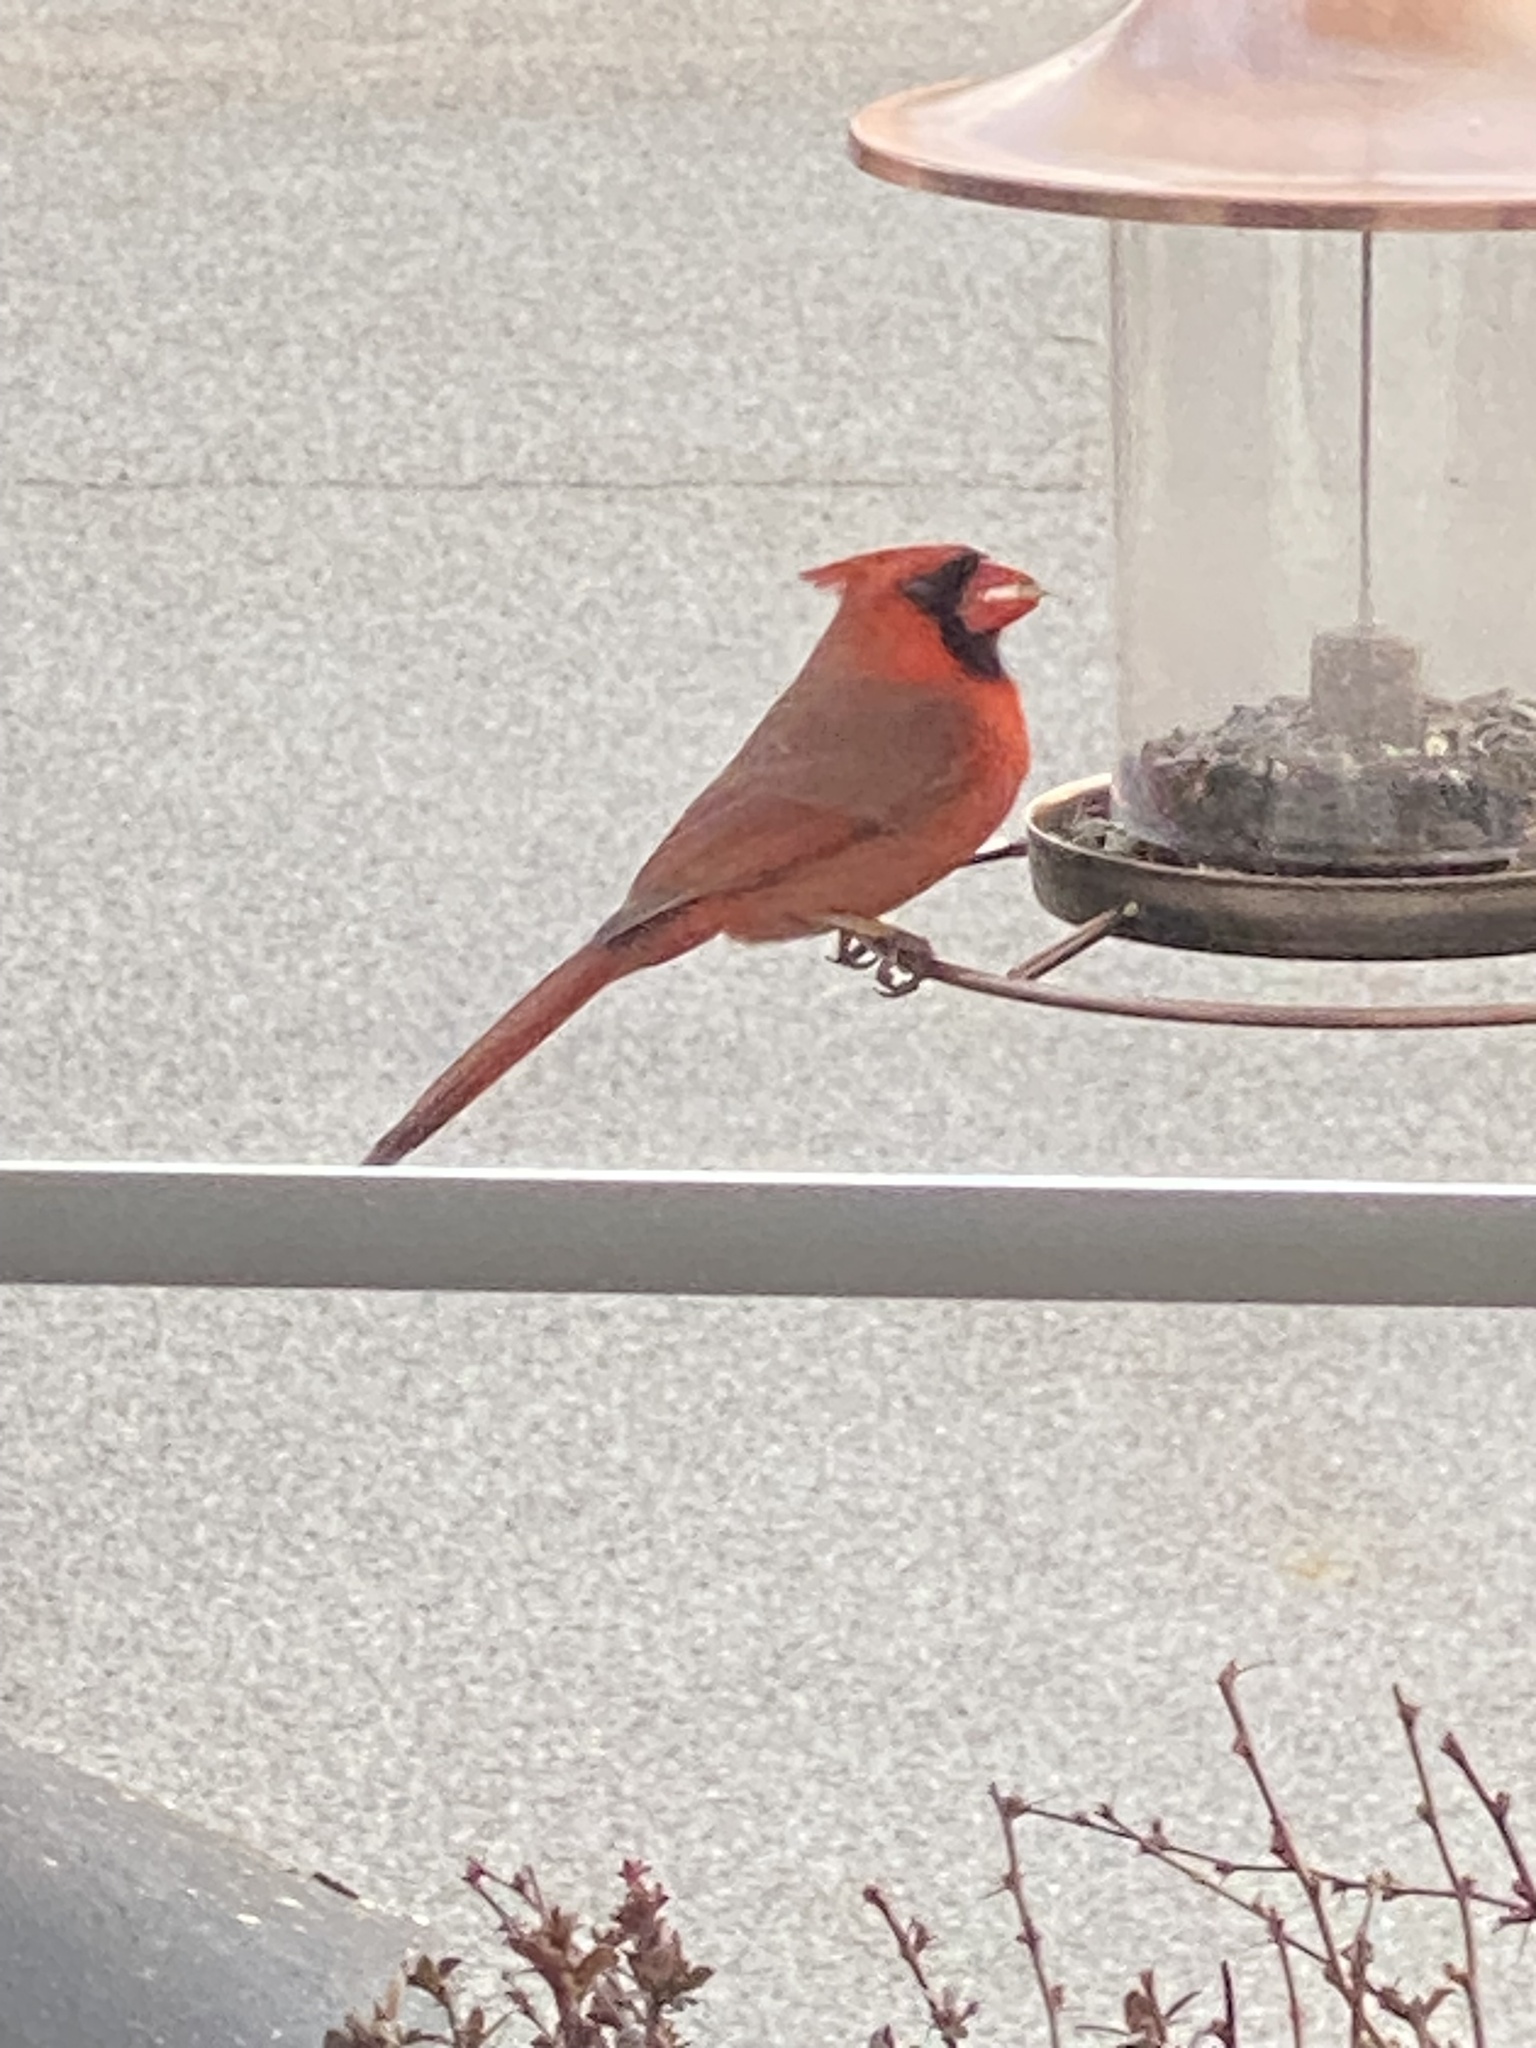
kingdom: Animalia
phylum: Chordata
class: Aves
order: Passeriformes
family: Cardinalidae
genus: Cardinalis
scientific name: Cardinalis cardinalis
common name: Northern cardinal
